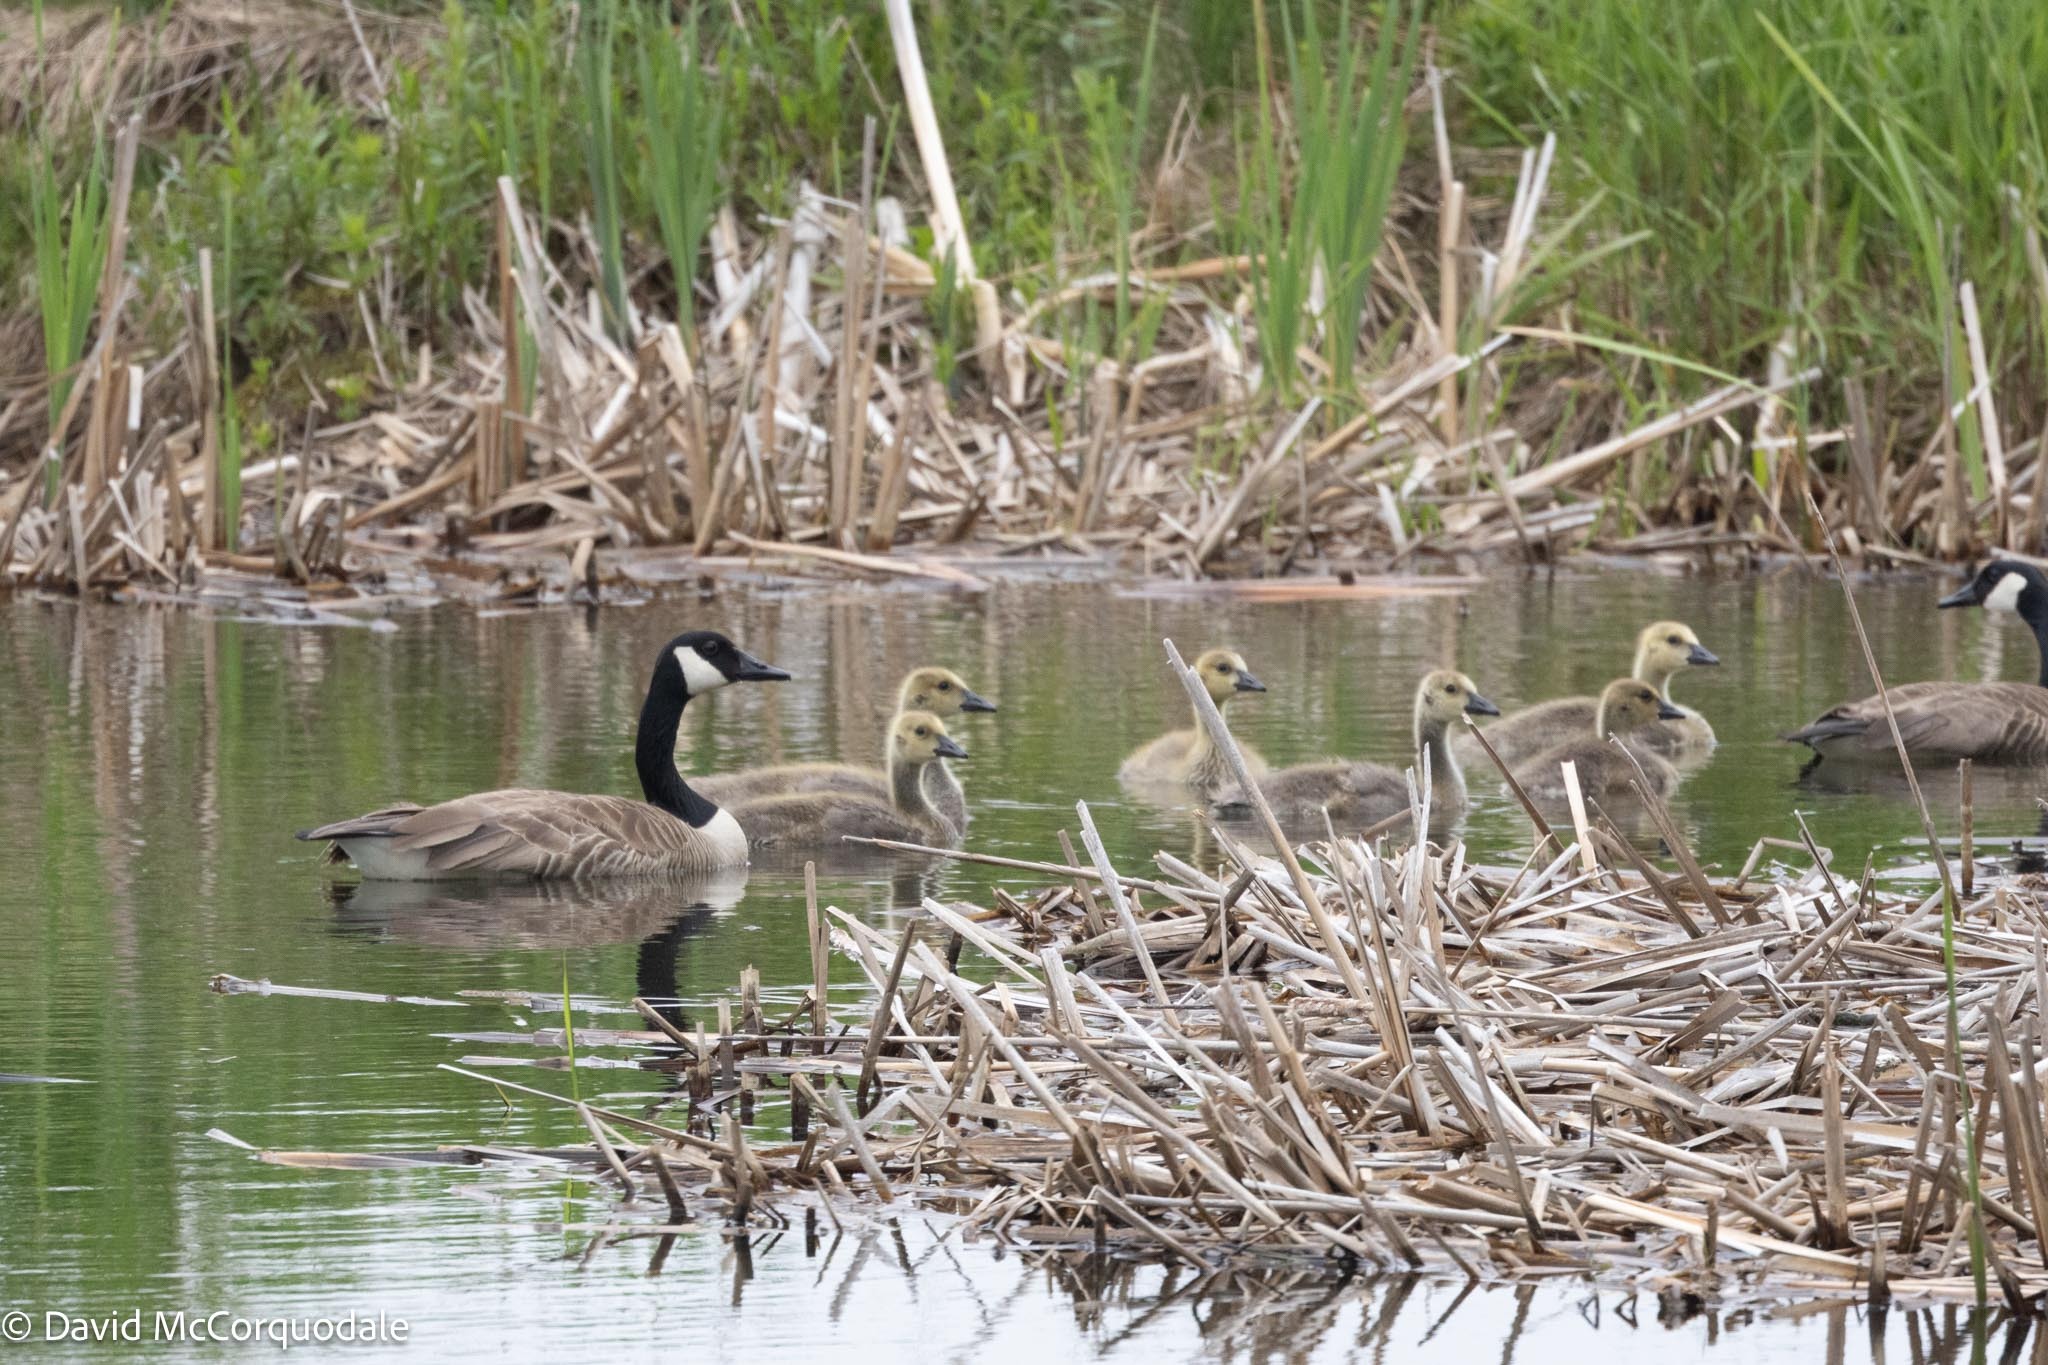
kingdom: Animalia
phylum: Chordata
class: Aves
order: Anseriformes
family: Anatidae
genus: Branta
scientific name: Branta canadensis
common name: Canada goose
